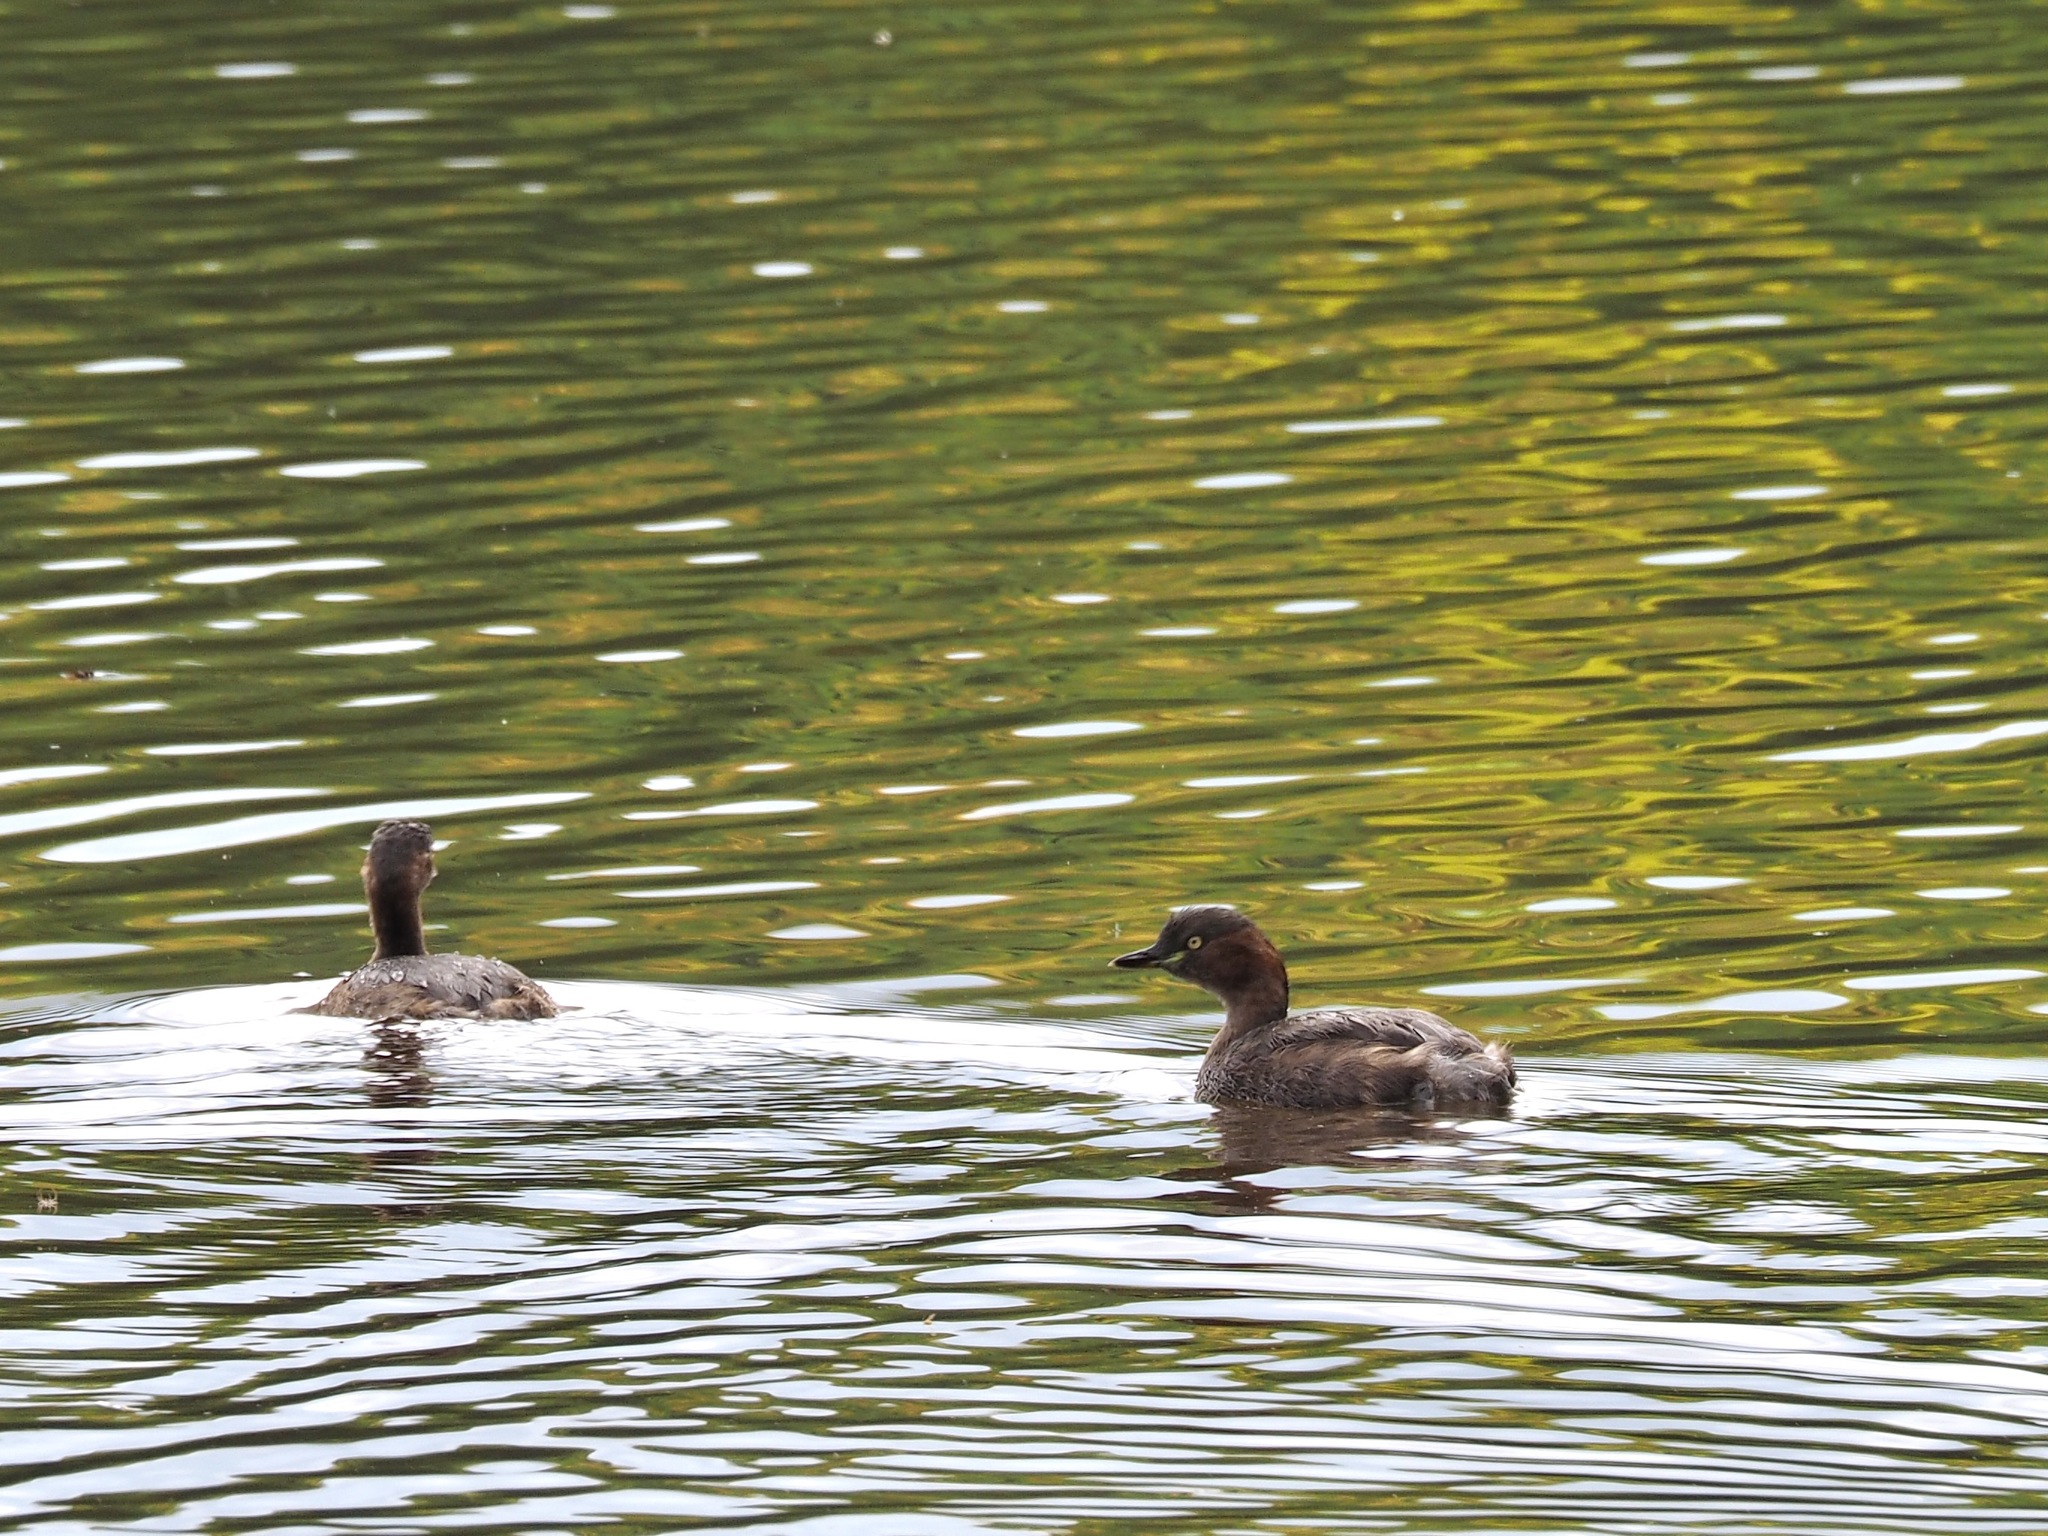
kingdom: Animalia
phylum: Chordata
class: Aves
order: Podicipediformes
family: Podicipedidae
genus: Tachybaptus
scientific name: Tachybaptus ruficollis
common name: Little grebe
